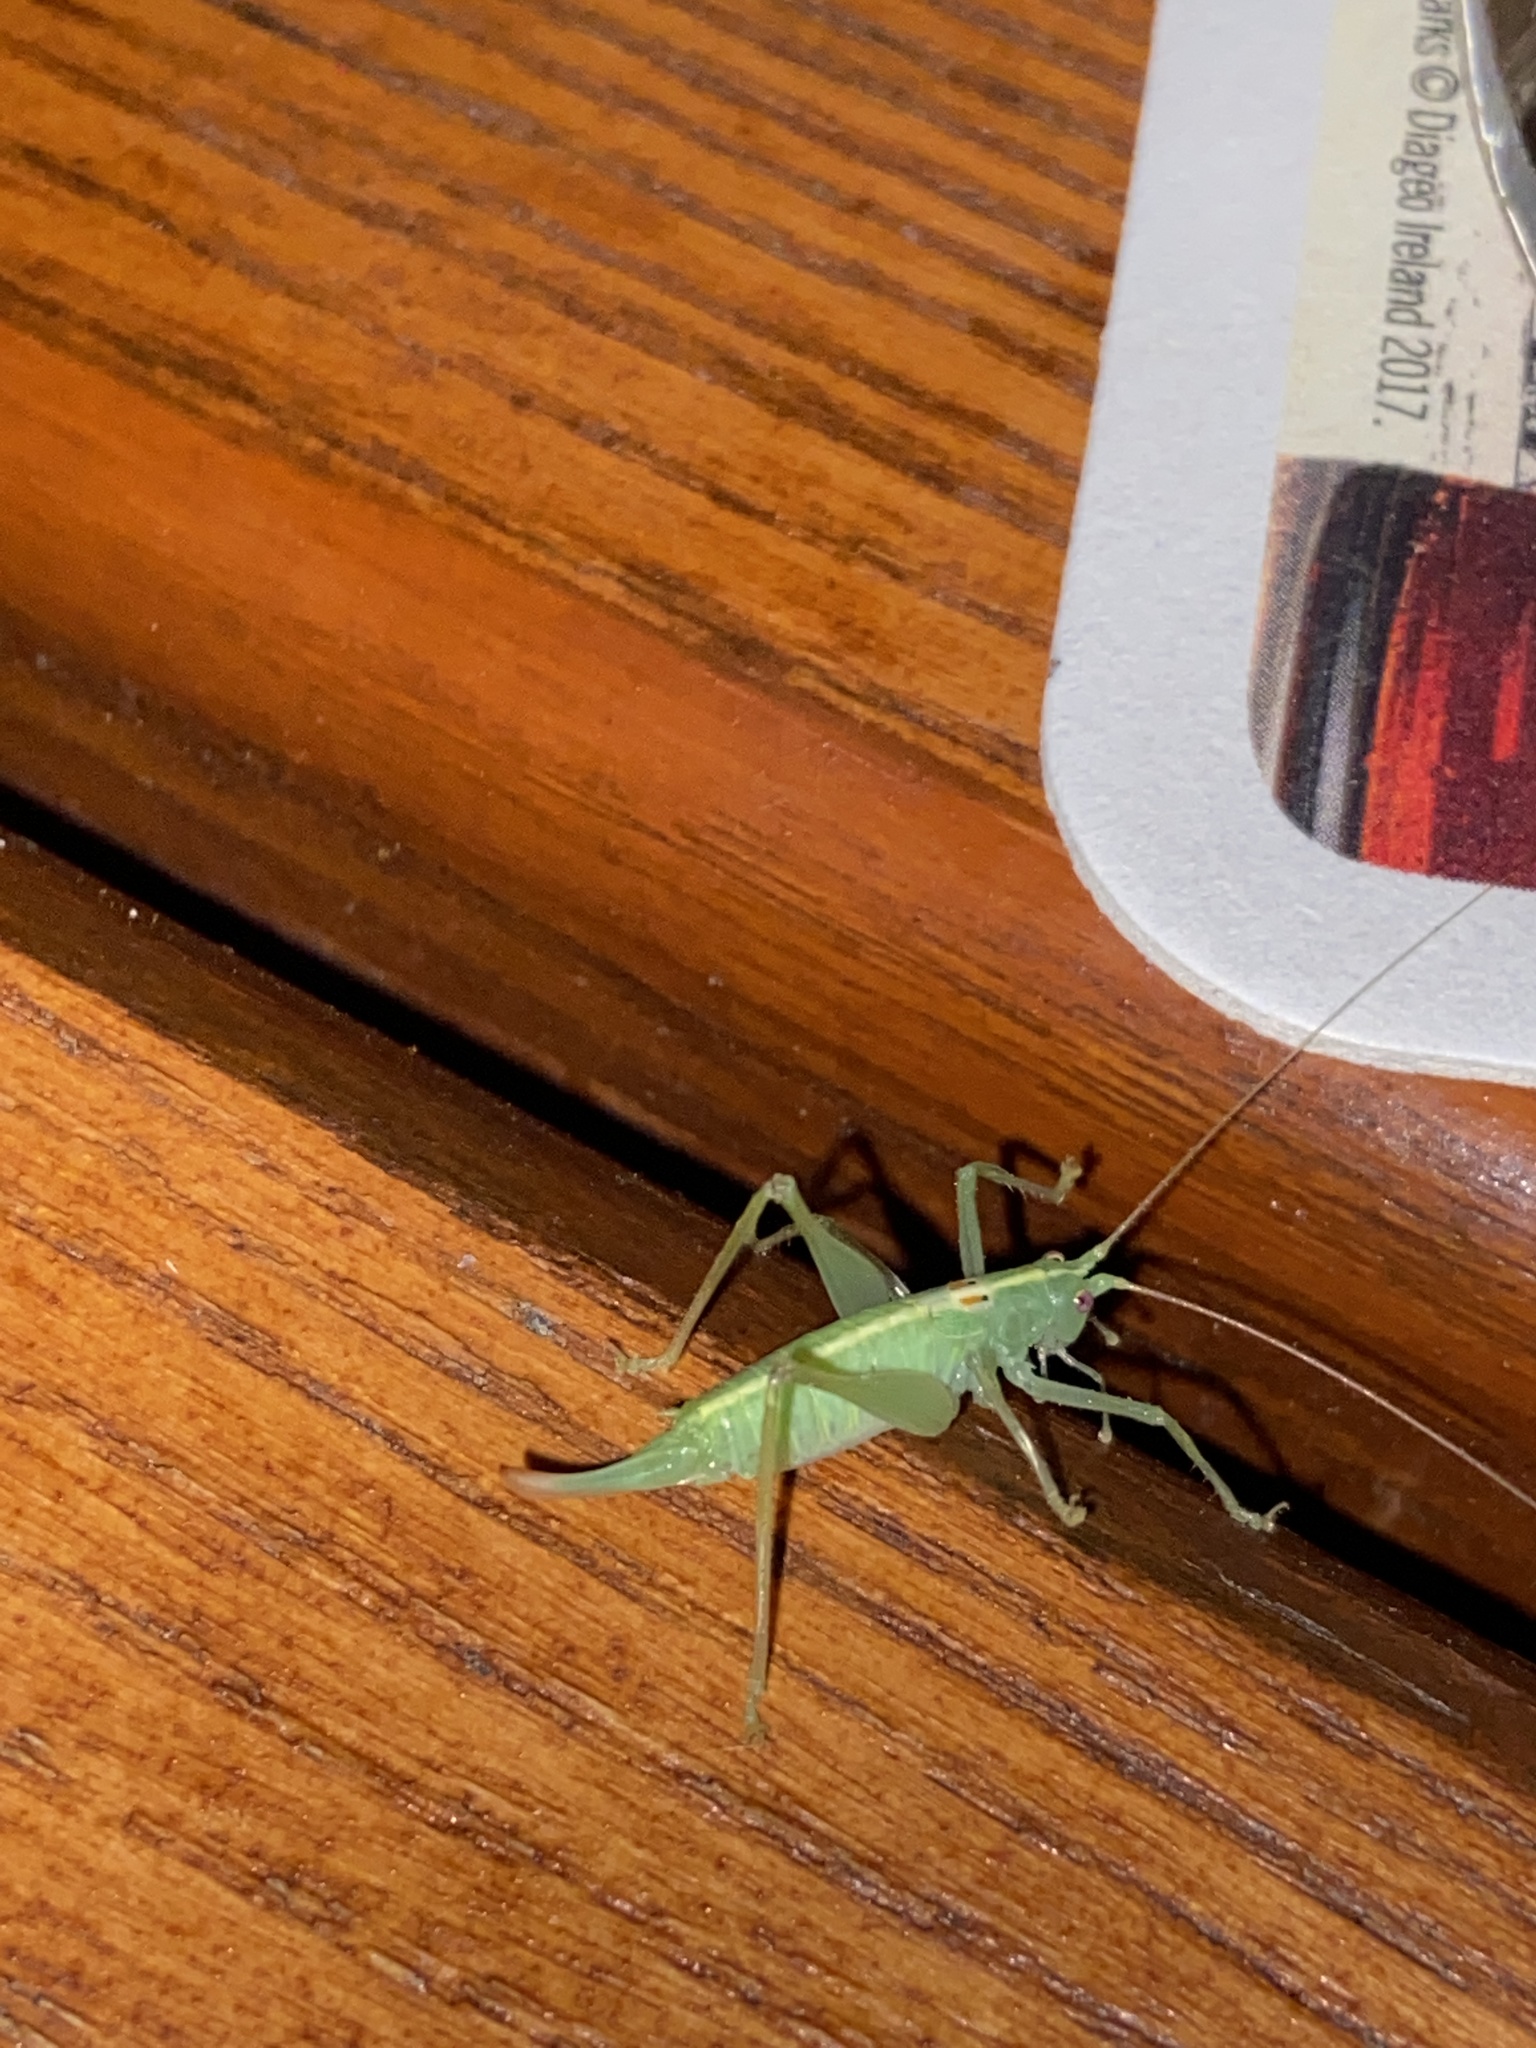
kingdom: Animalia
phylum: Arthropoda
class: Insecta
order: Orthoptera
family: Tettigoniidae
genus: Meconema
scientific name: Meconema meridionale
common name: Southern oak bush-cricket
